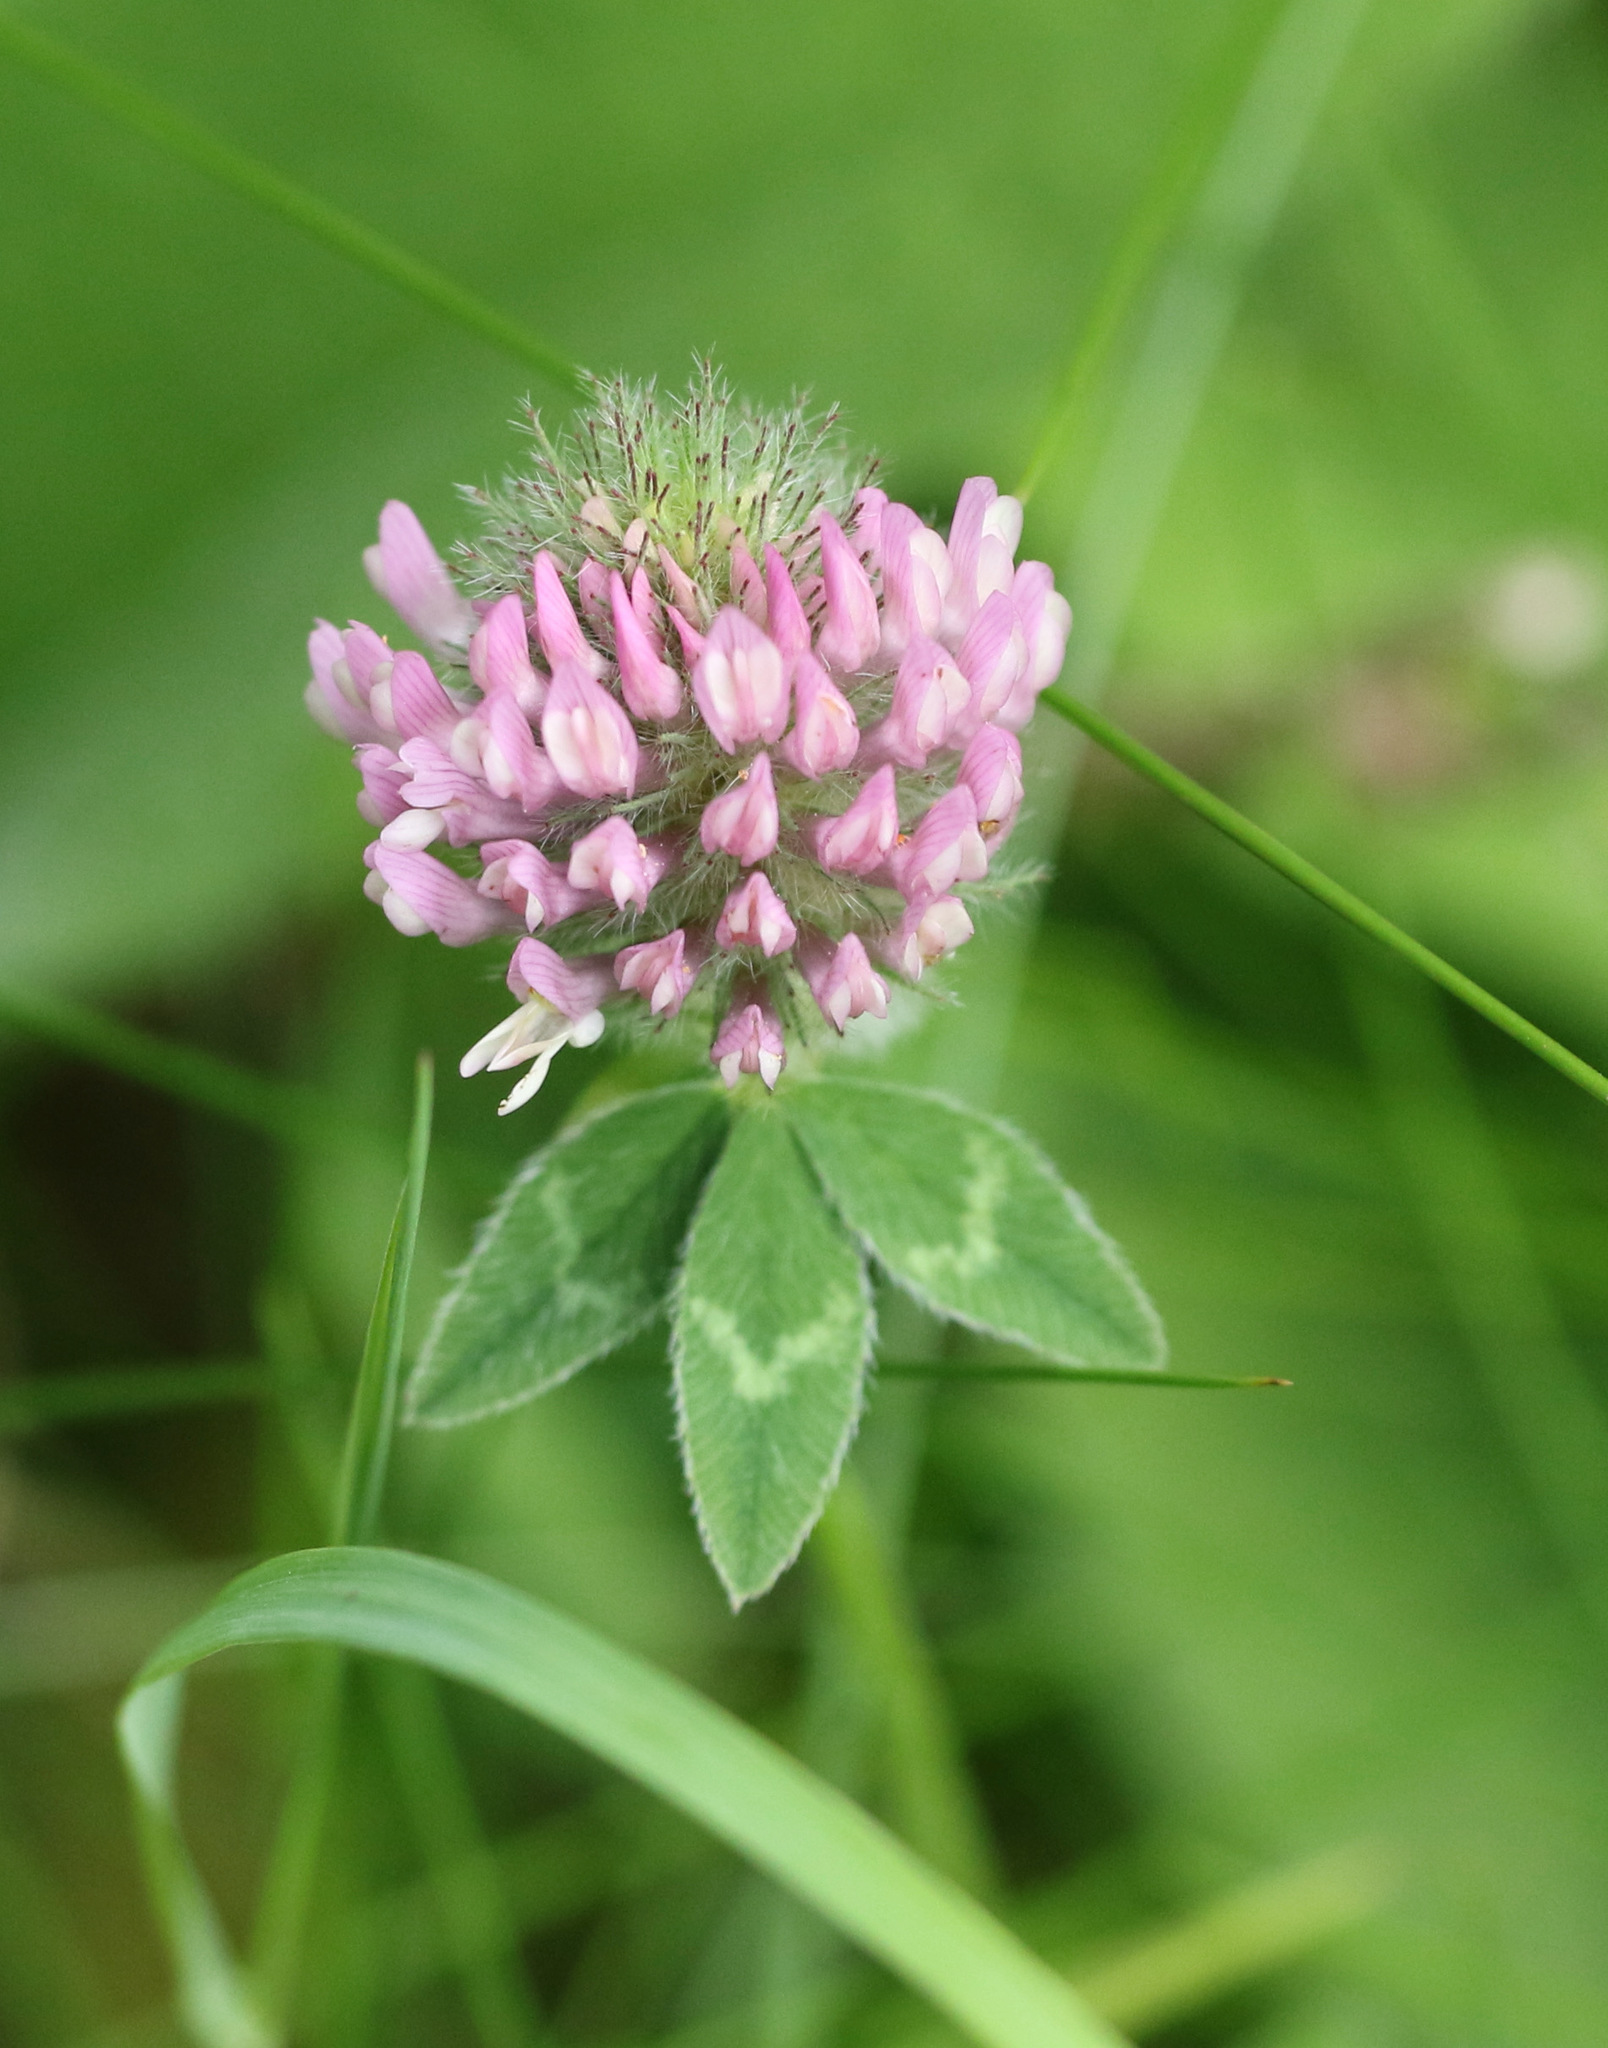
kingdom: Plantae
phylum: Tracheophyta
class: Magnoliopsida
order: Fabales
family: Fabaceae
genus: Trifolium
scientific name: Trifolium pratense
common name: Red clover
